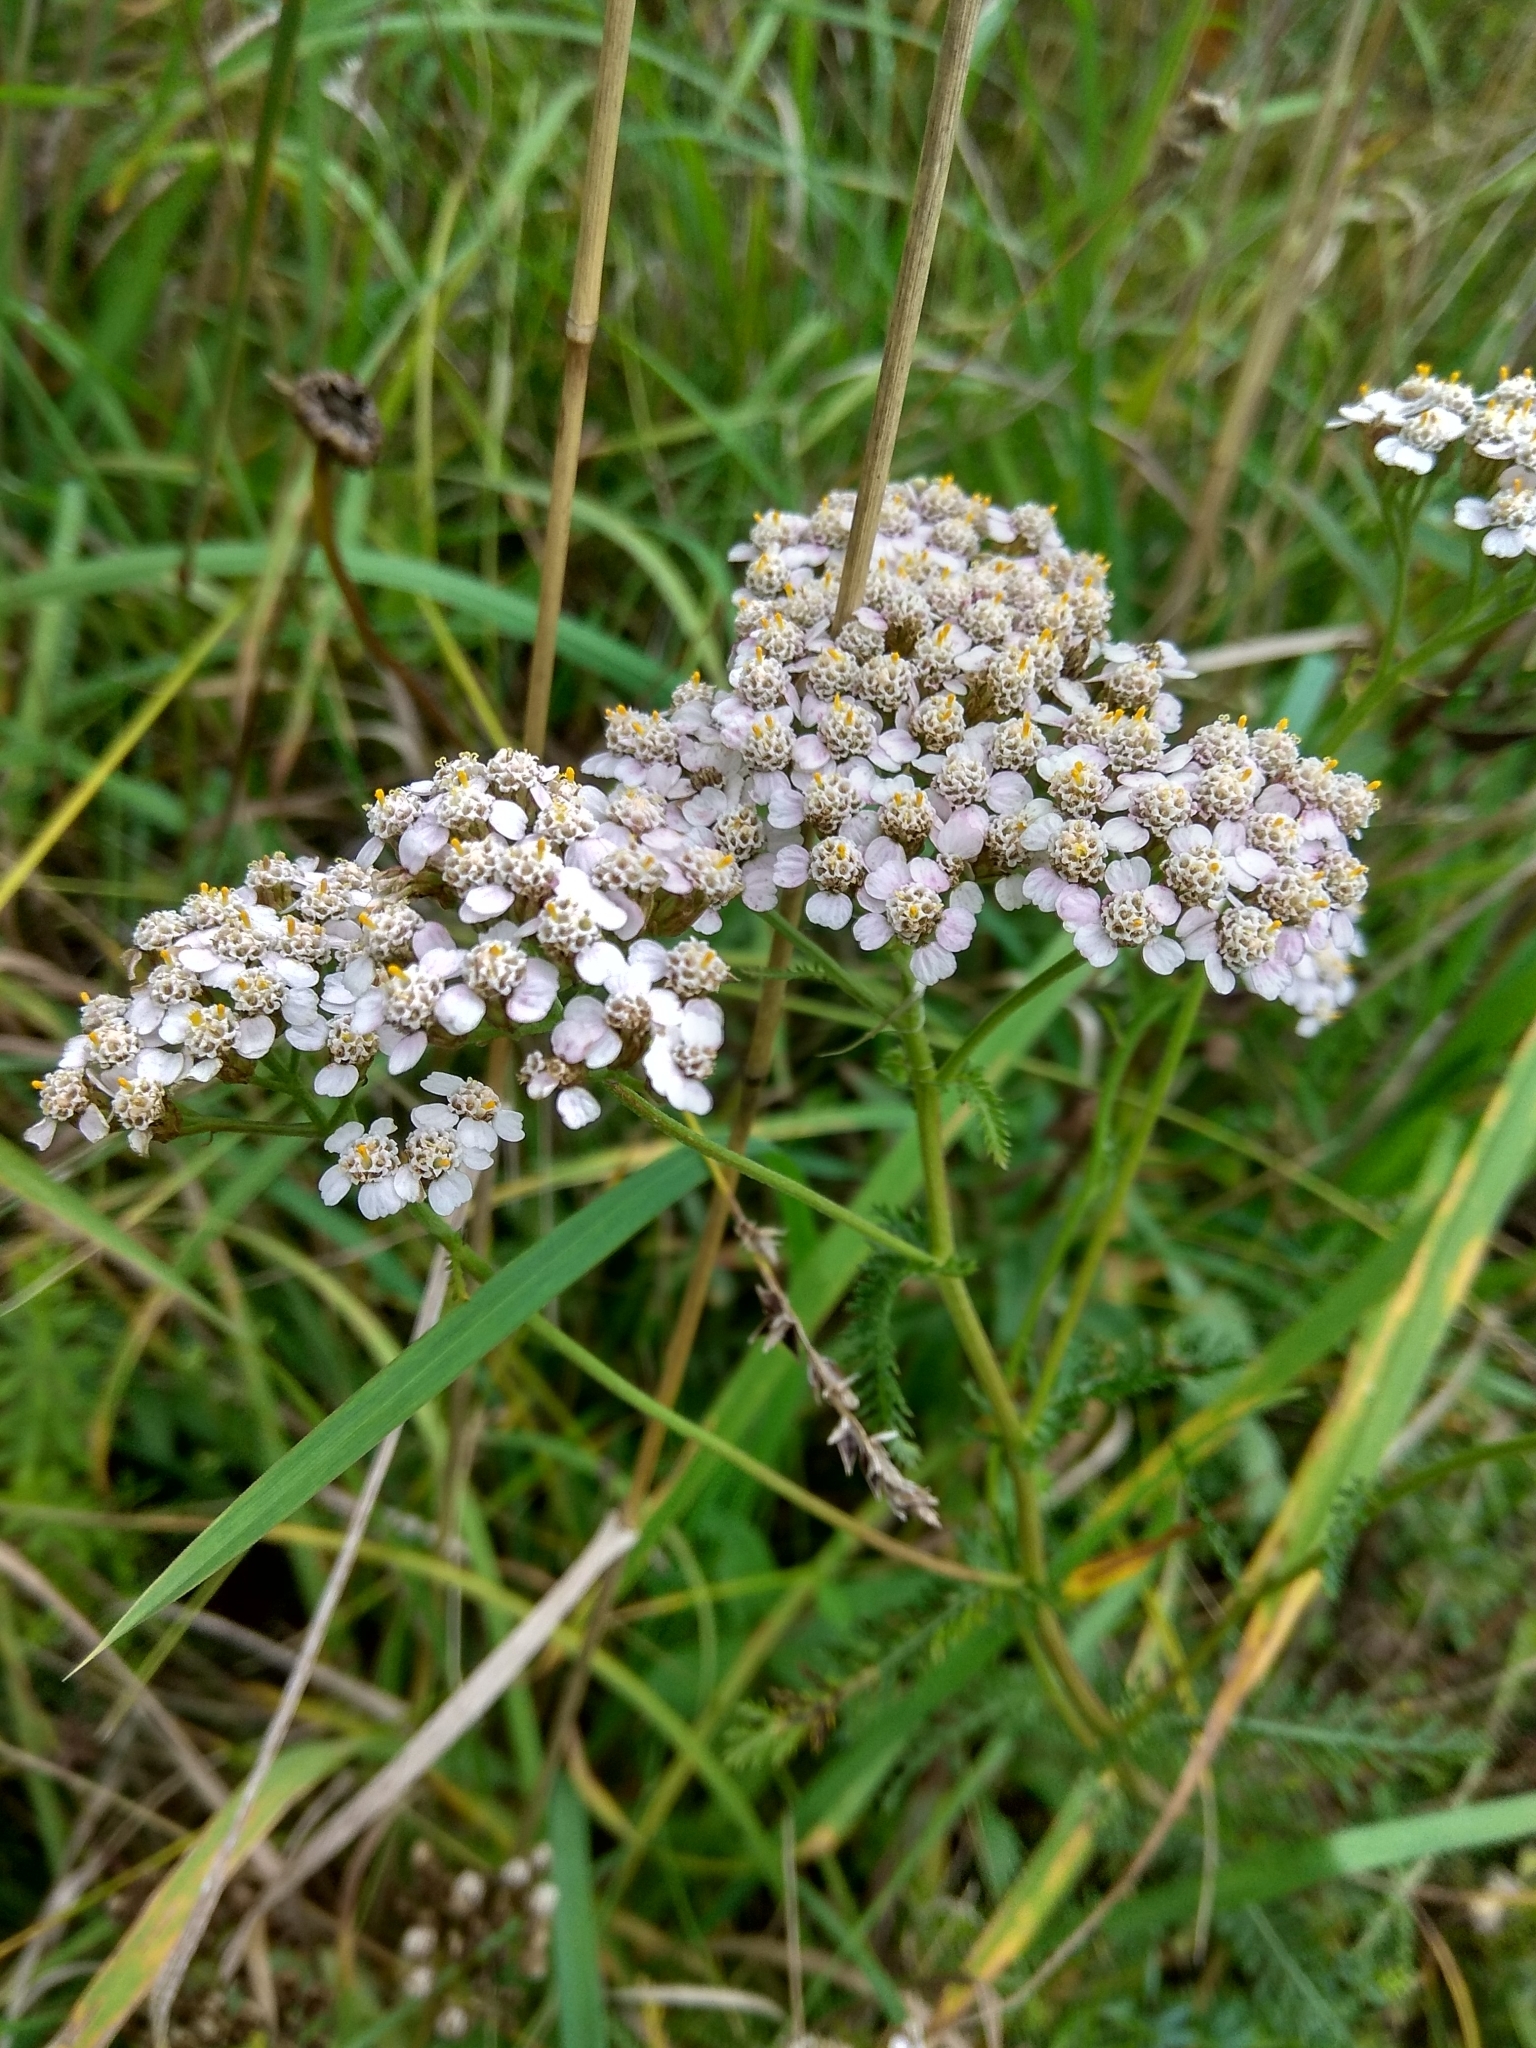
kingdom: Plantae
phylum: Tracheophyta
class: Magnoliopsida
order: Asterales
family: Asteraceae
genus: Achillea
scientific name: Achillea millefolium
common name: Yarrow
